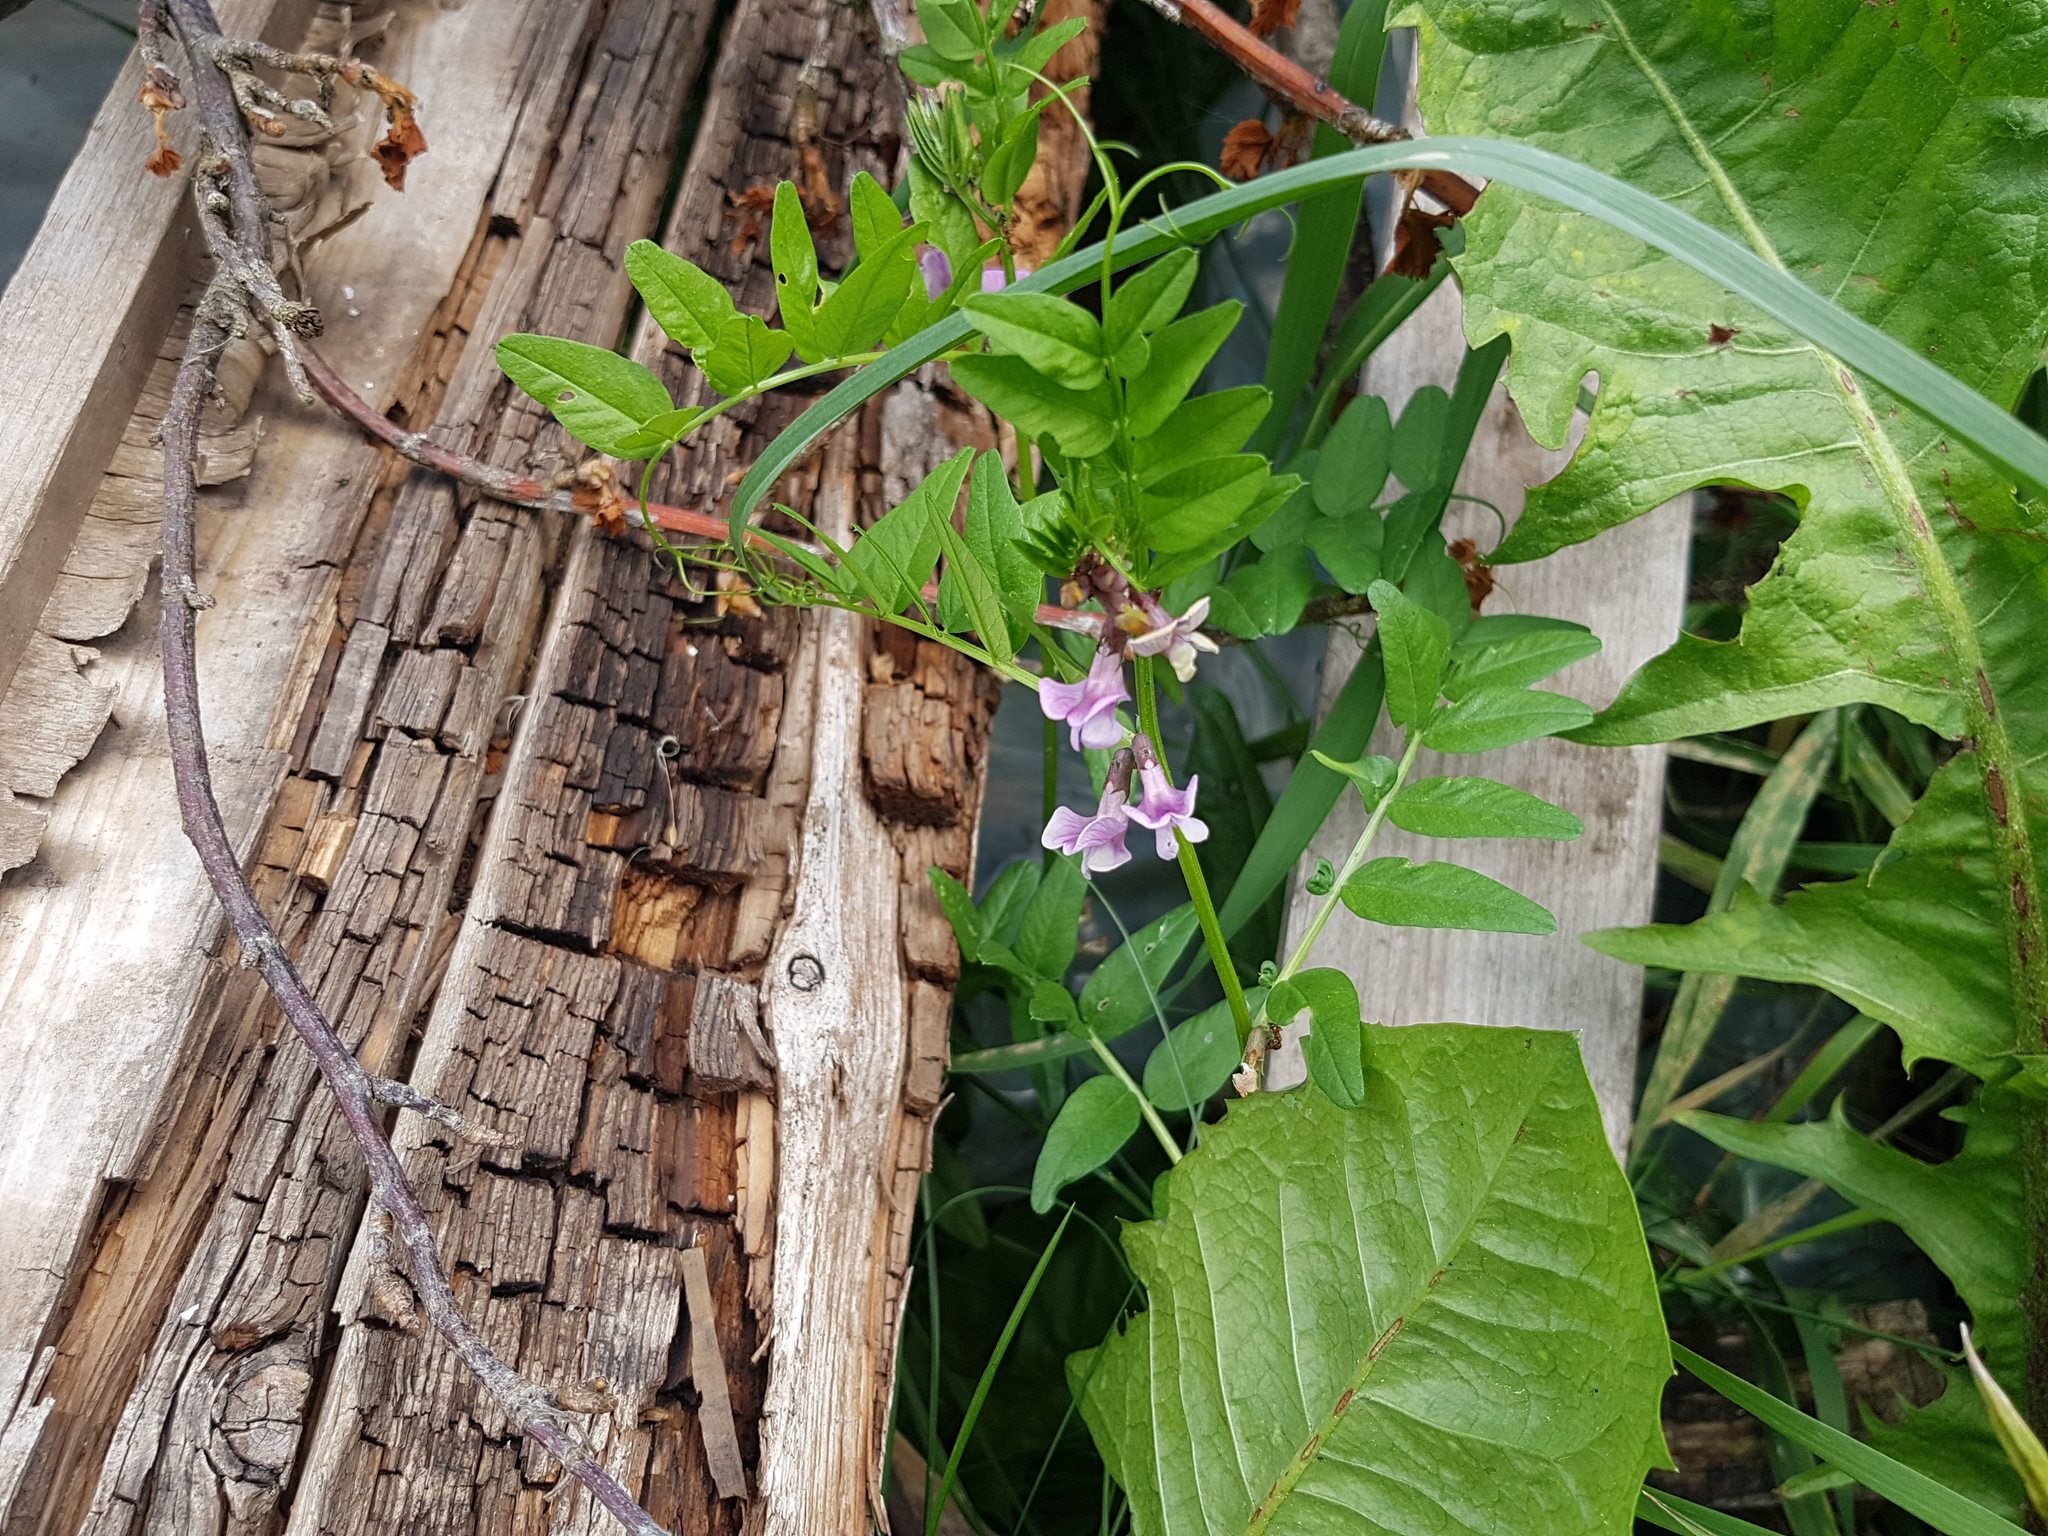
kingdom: Plantae
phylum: Tracheophyta
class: Magnoliopsida
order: Fabales
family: Fabaceae
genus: Vicia
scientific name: Vicia sepium
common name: Bush vetch
